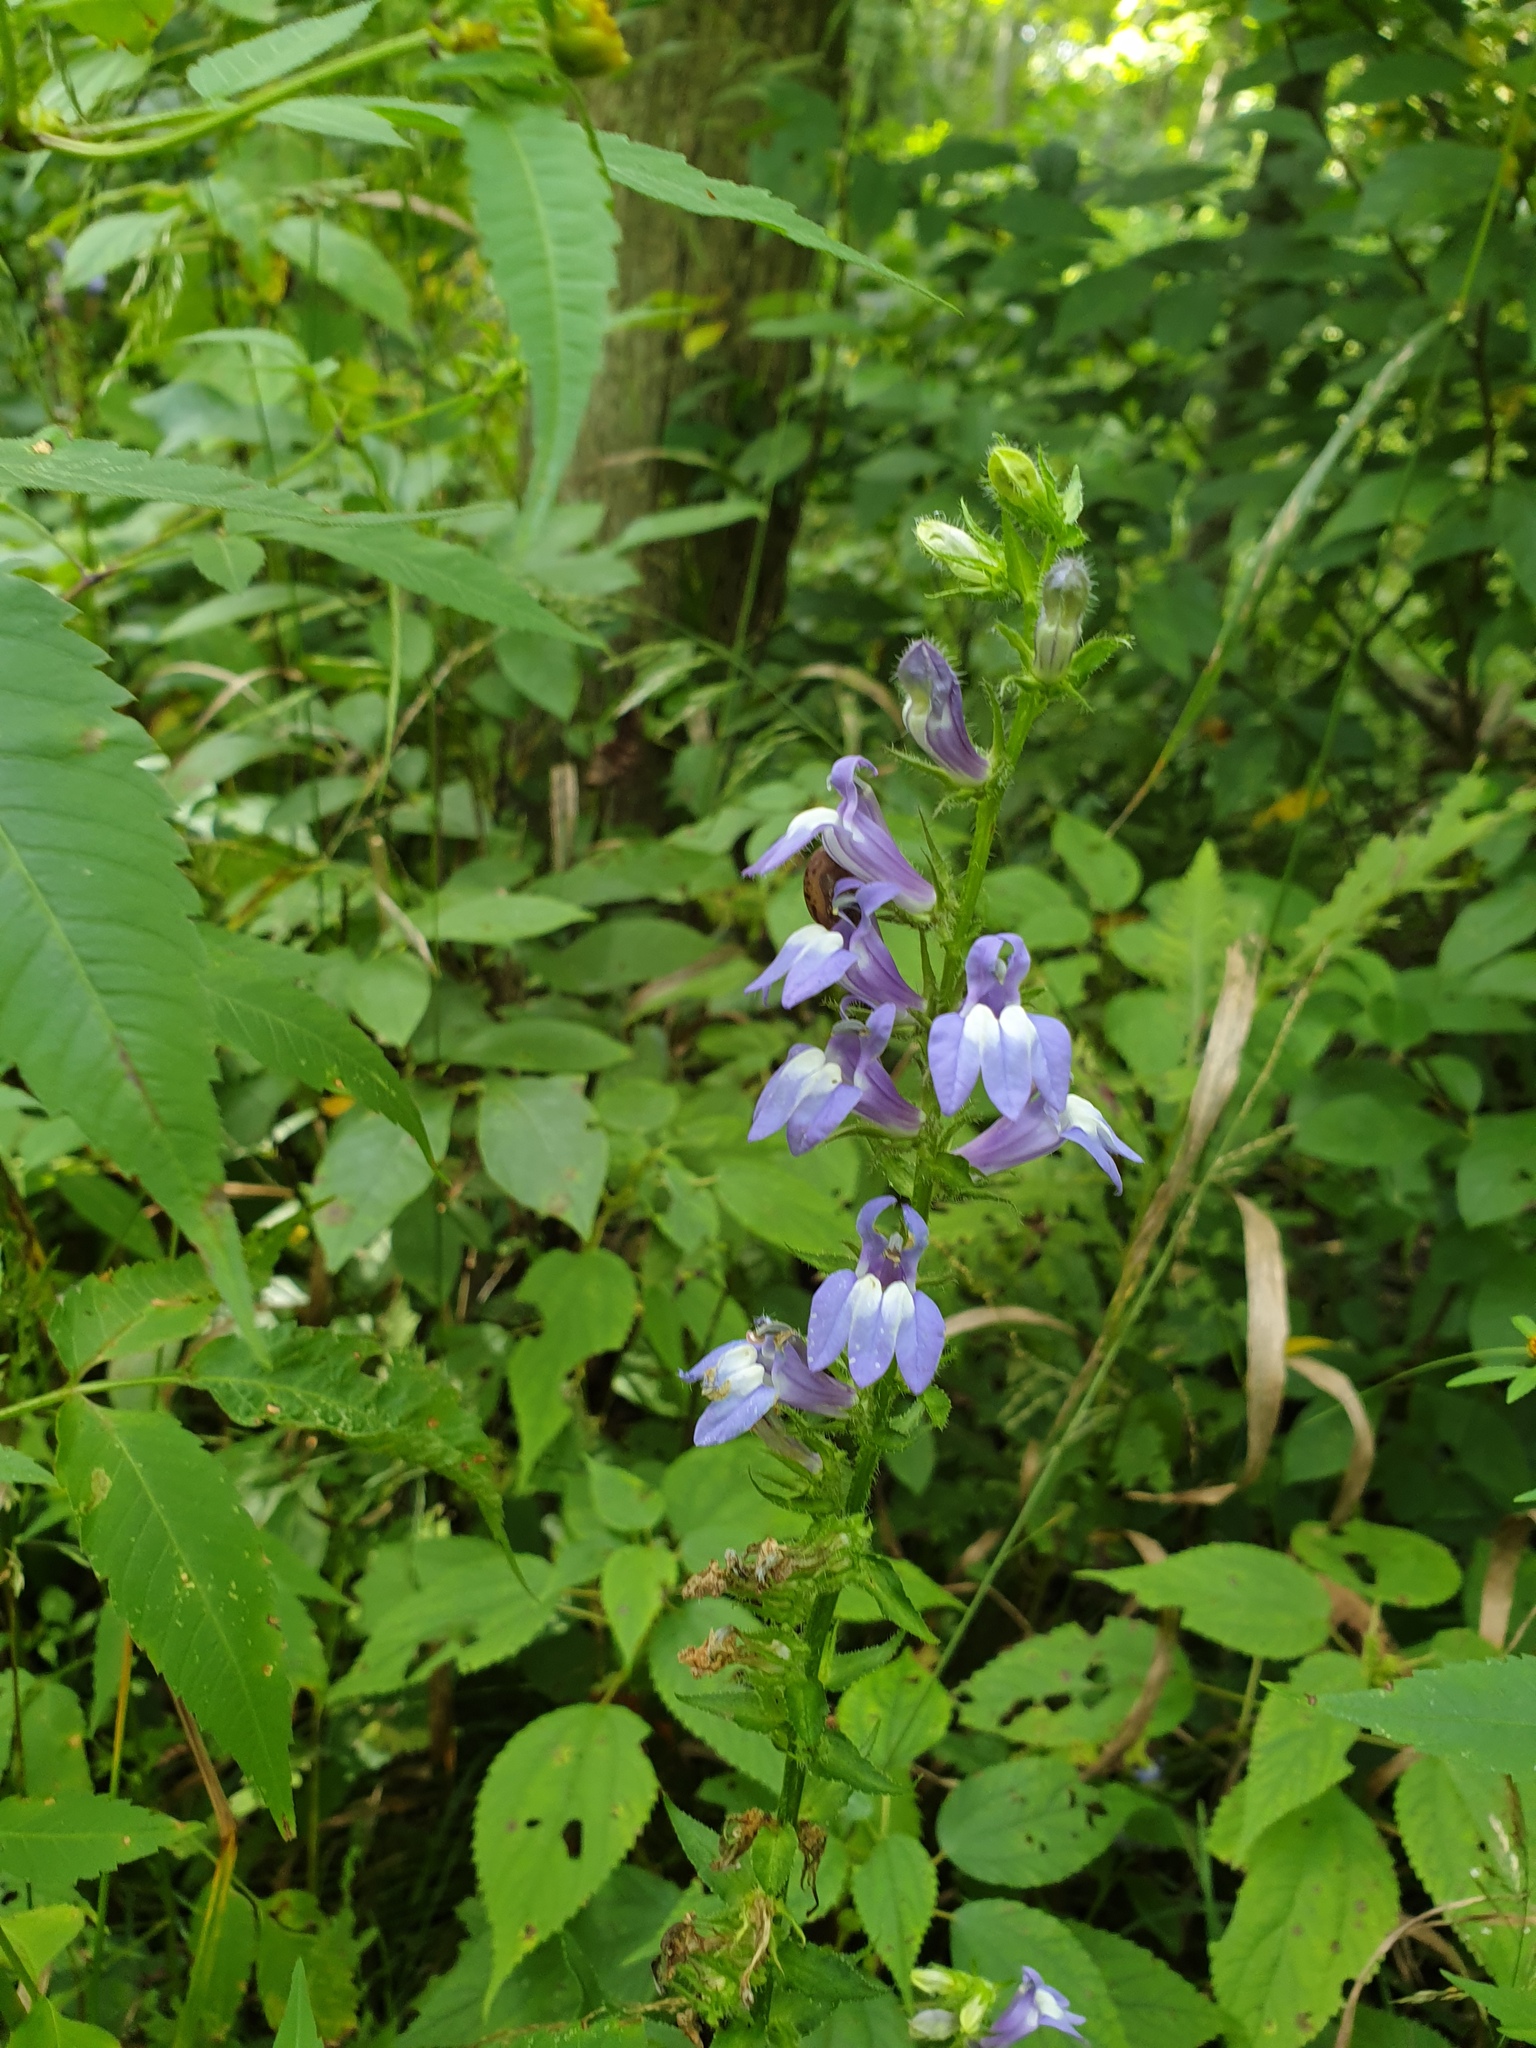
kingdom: Plantae
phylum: Tracheophyta
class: Magnoliopsida
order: Asterales
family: Campanulaceae
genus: Lobelia
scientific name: Lobelia siphilitica
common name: Great lobelia
